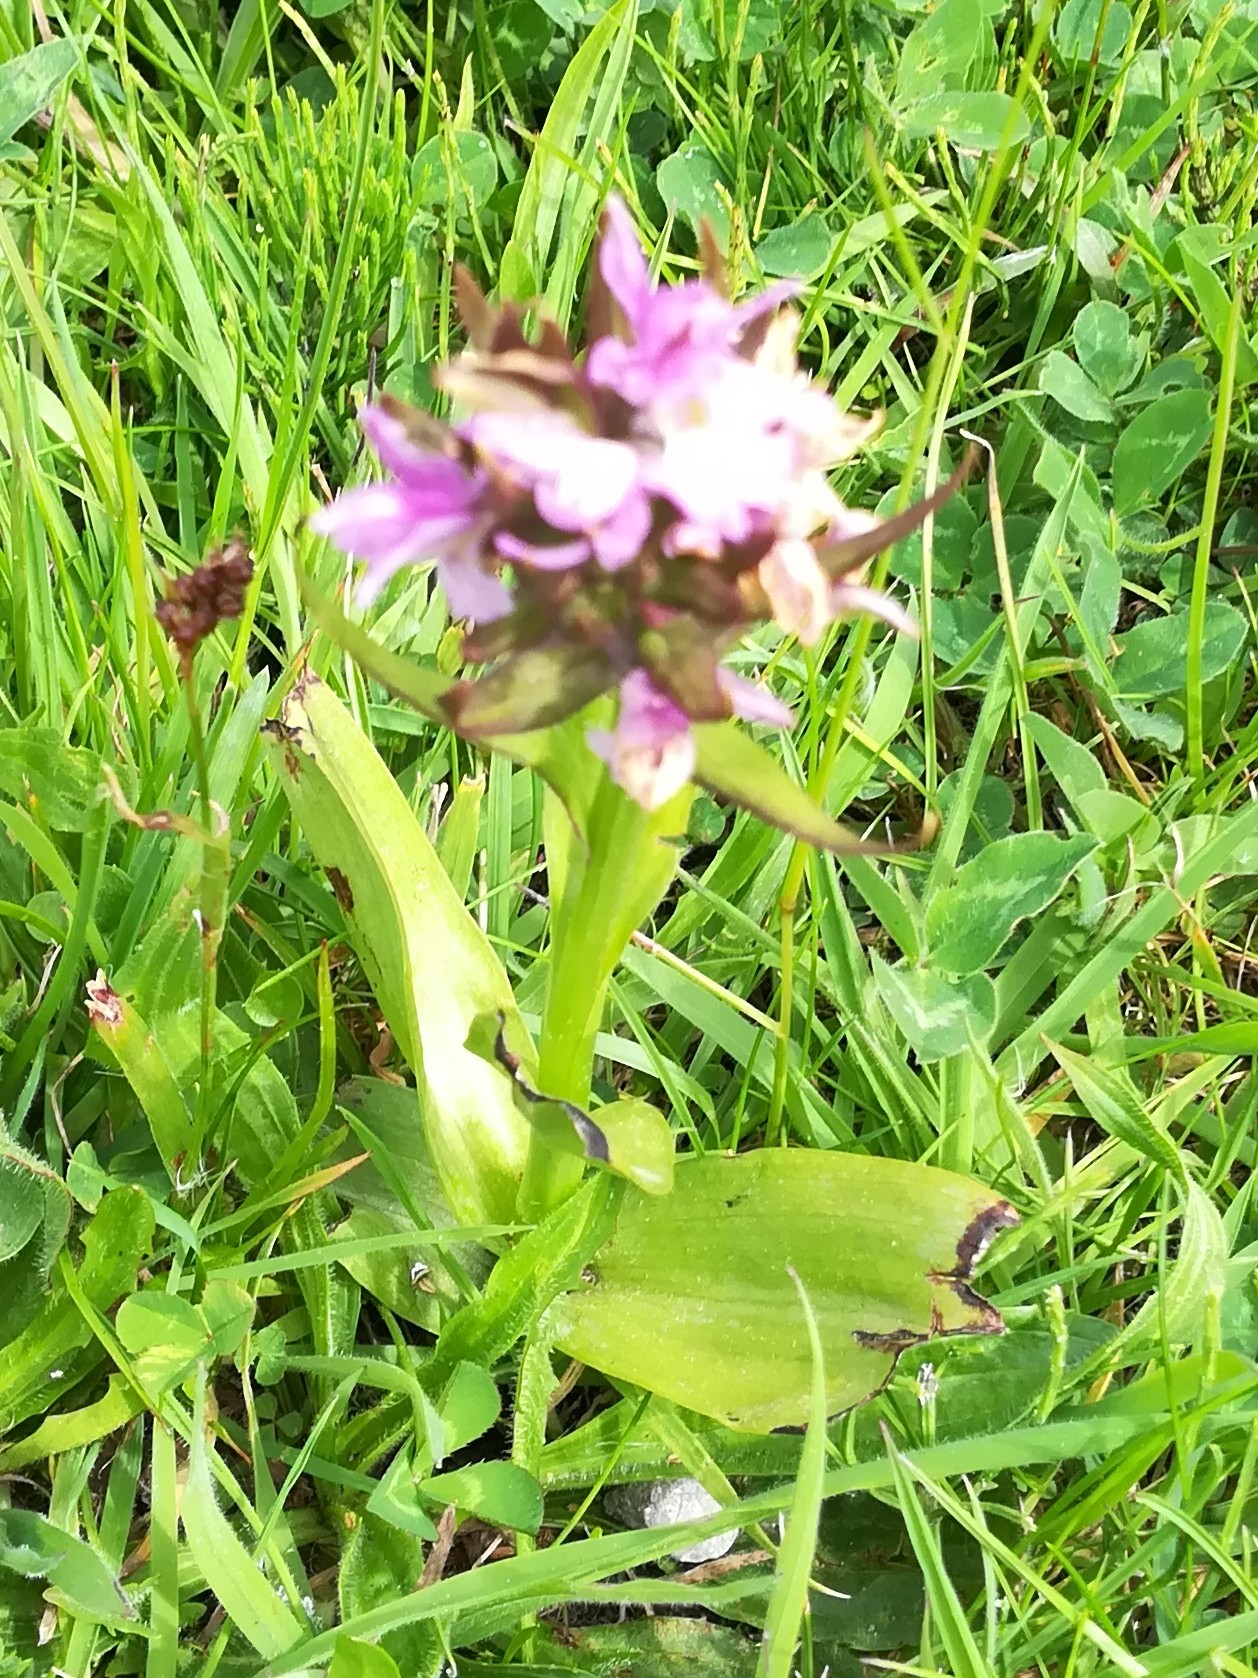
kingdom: Plantae
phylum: Tracheophyta
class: Liliopsida
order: Asparagales
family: Orchidaceae
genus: Dactylorhiza
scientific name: Dactylorhiza majalis
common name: Marsh orchid
